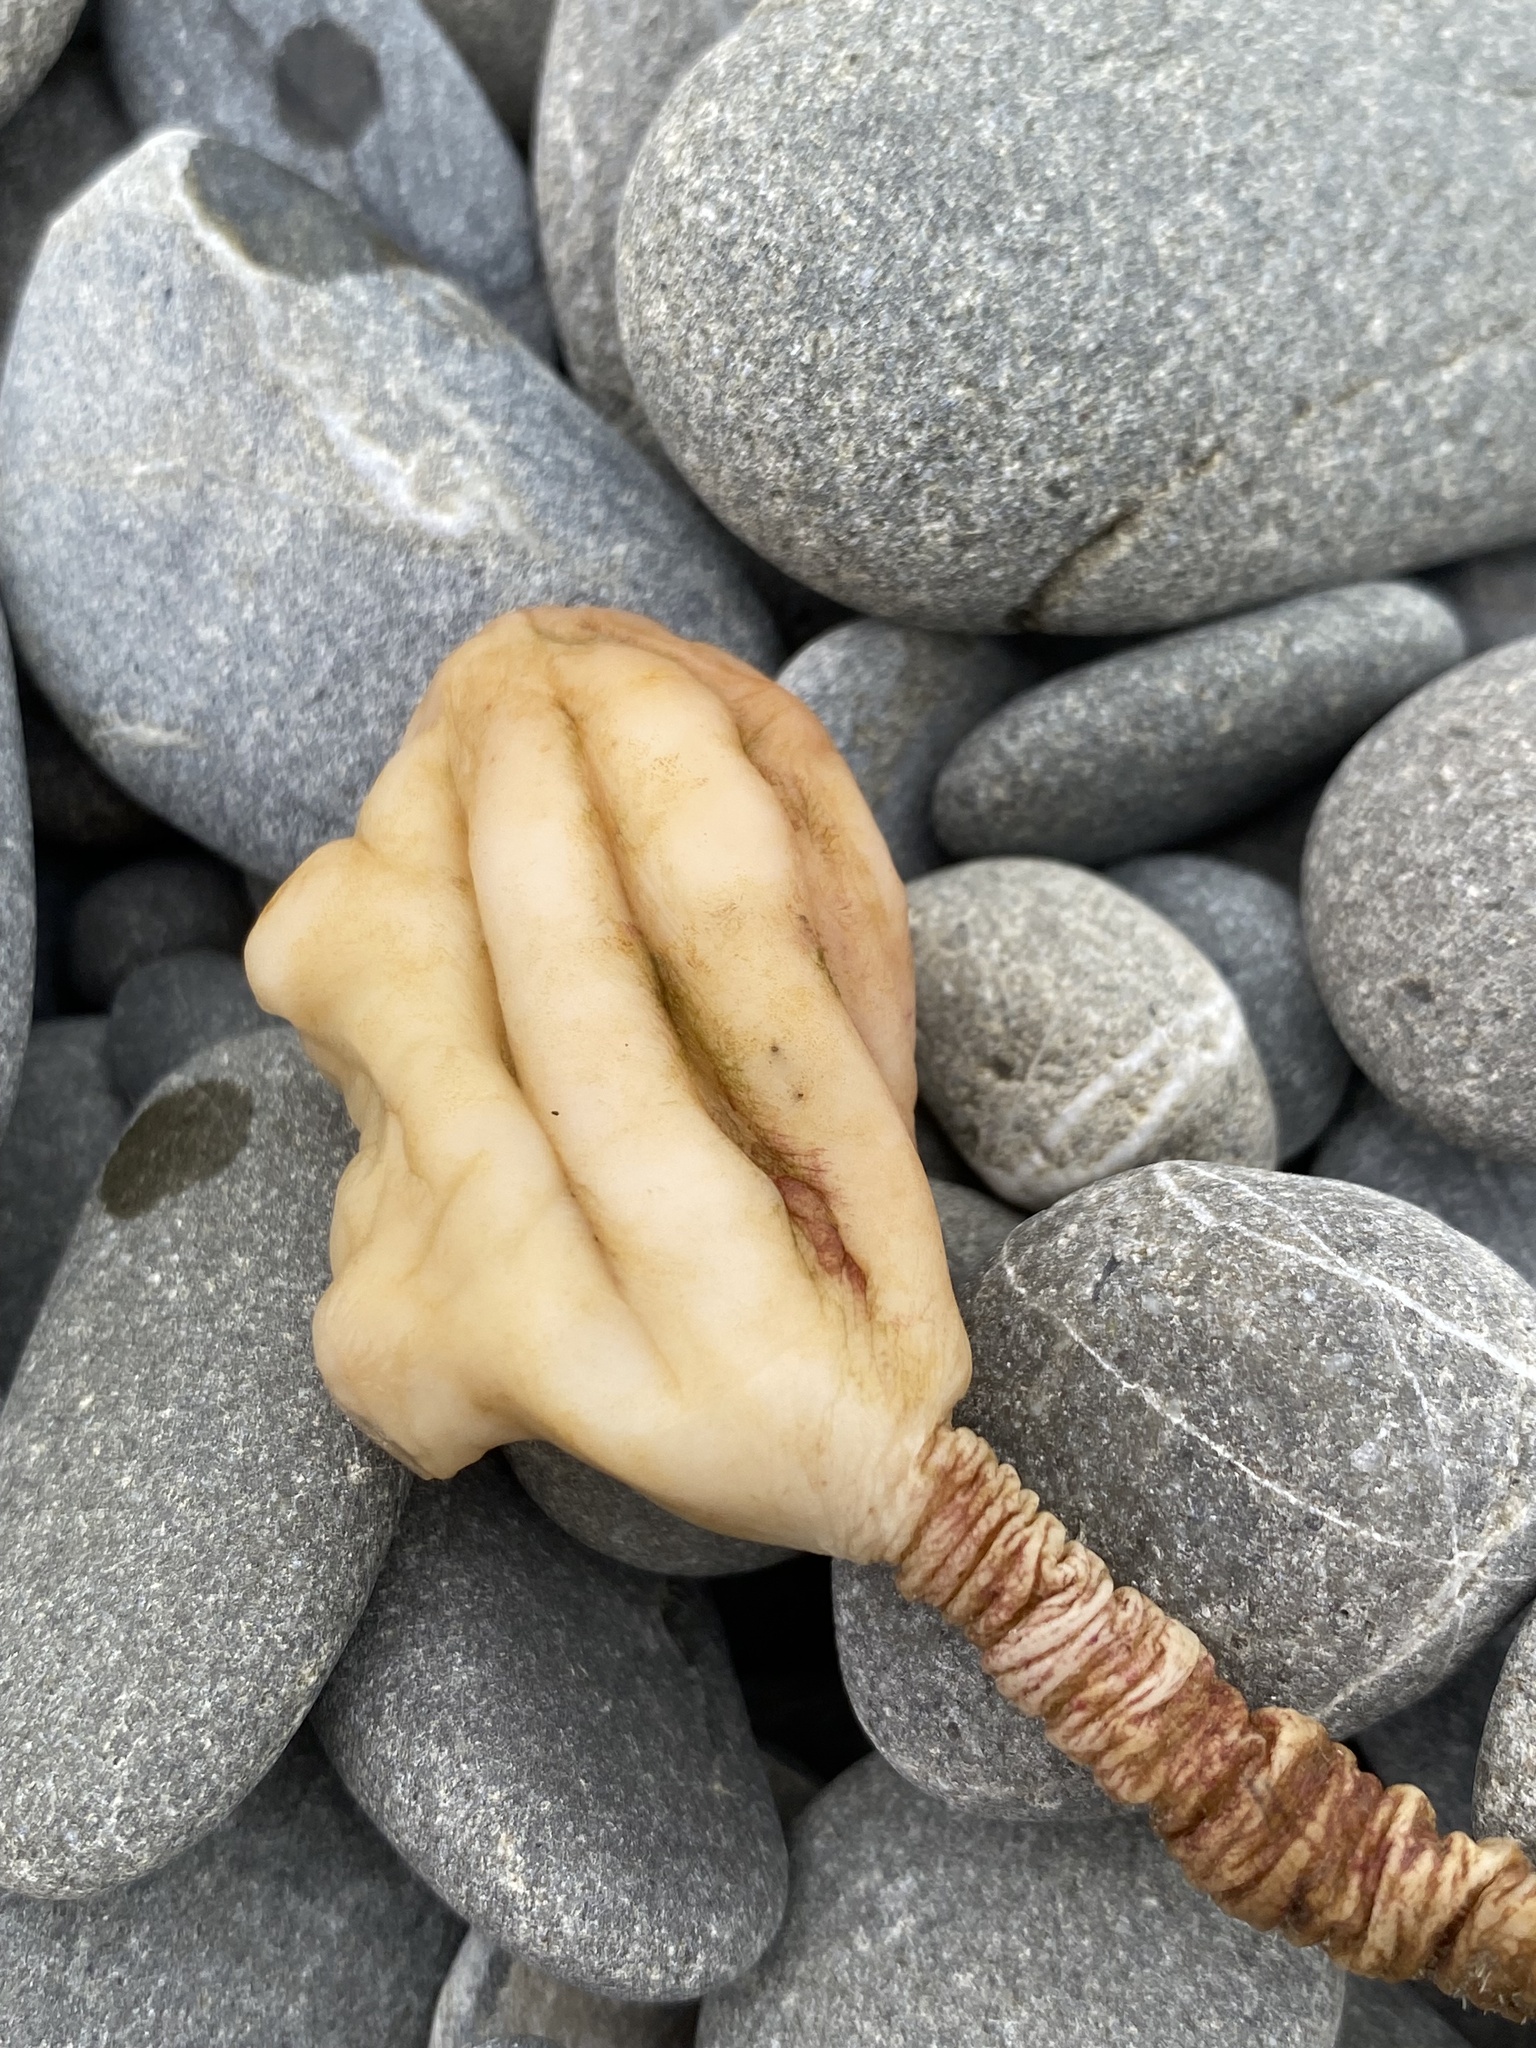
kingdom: Animalia
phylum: Chordata
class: Ascidiacea
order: Stolidobranchia
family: Pyuridae
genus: Pyura
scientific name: Pyura pachydermatina
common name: Sea tulip
